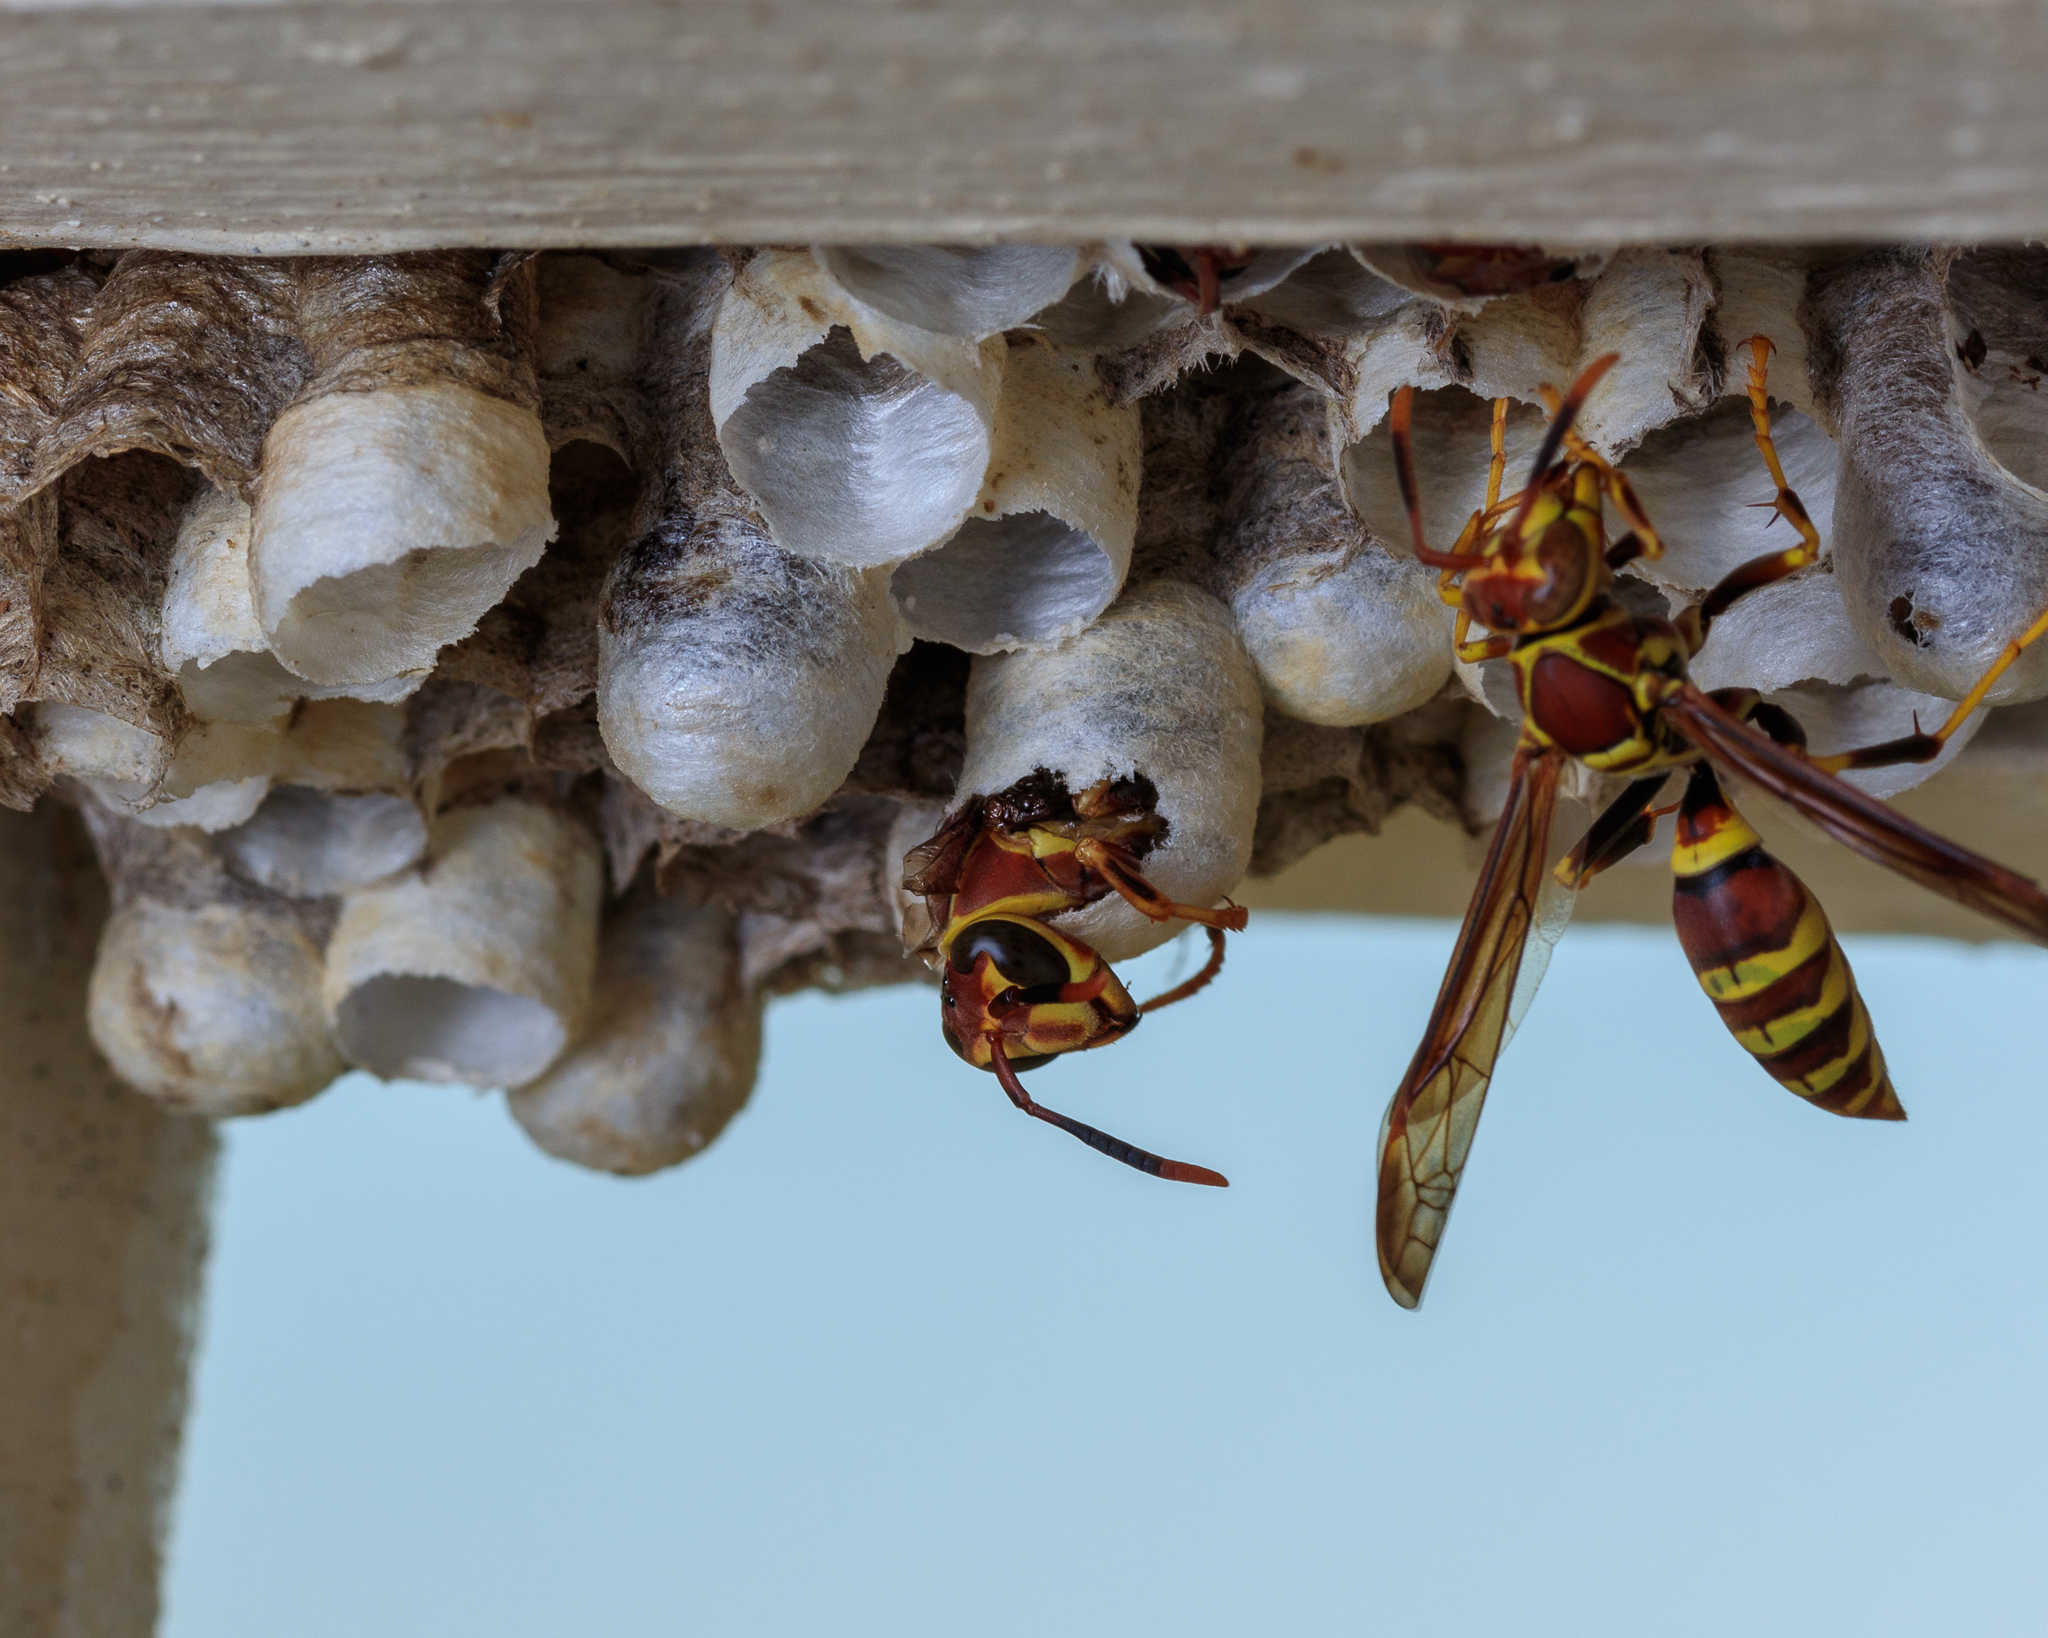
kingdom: Animalia
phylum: Arthropoda
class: Insecta
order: Hymenoptera
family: Eumenidae
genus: Polistes
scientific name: Polistes exclamans
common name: Paper wasp
